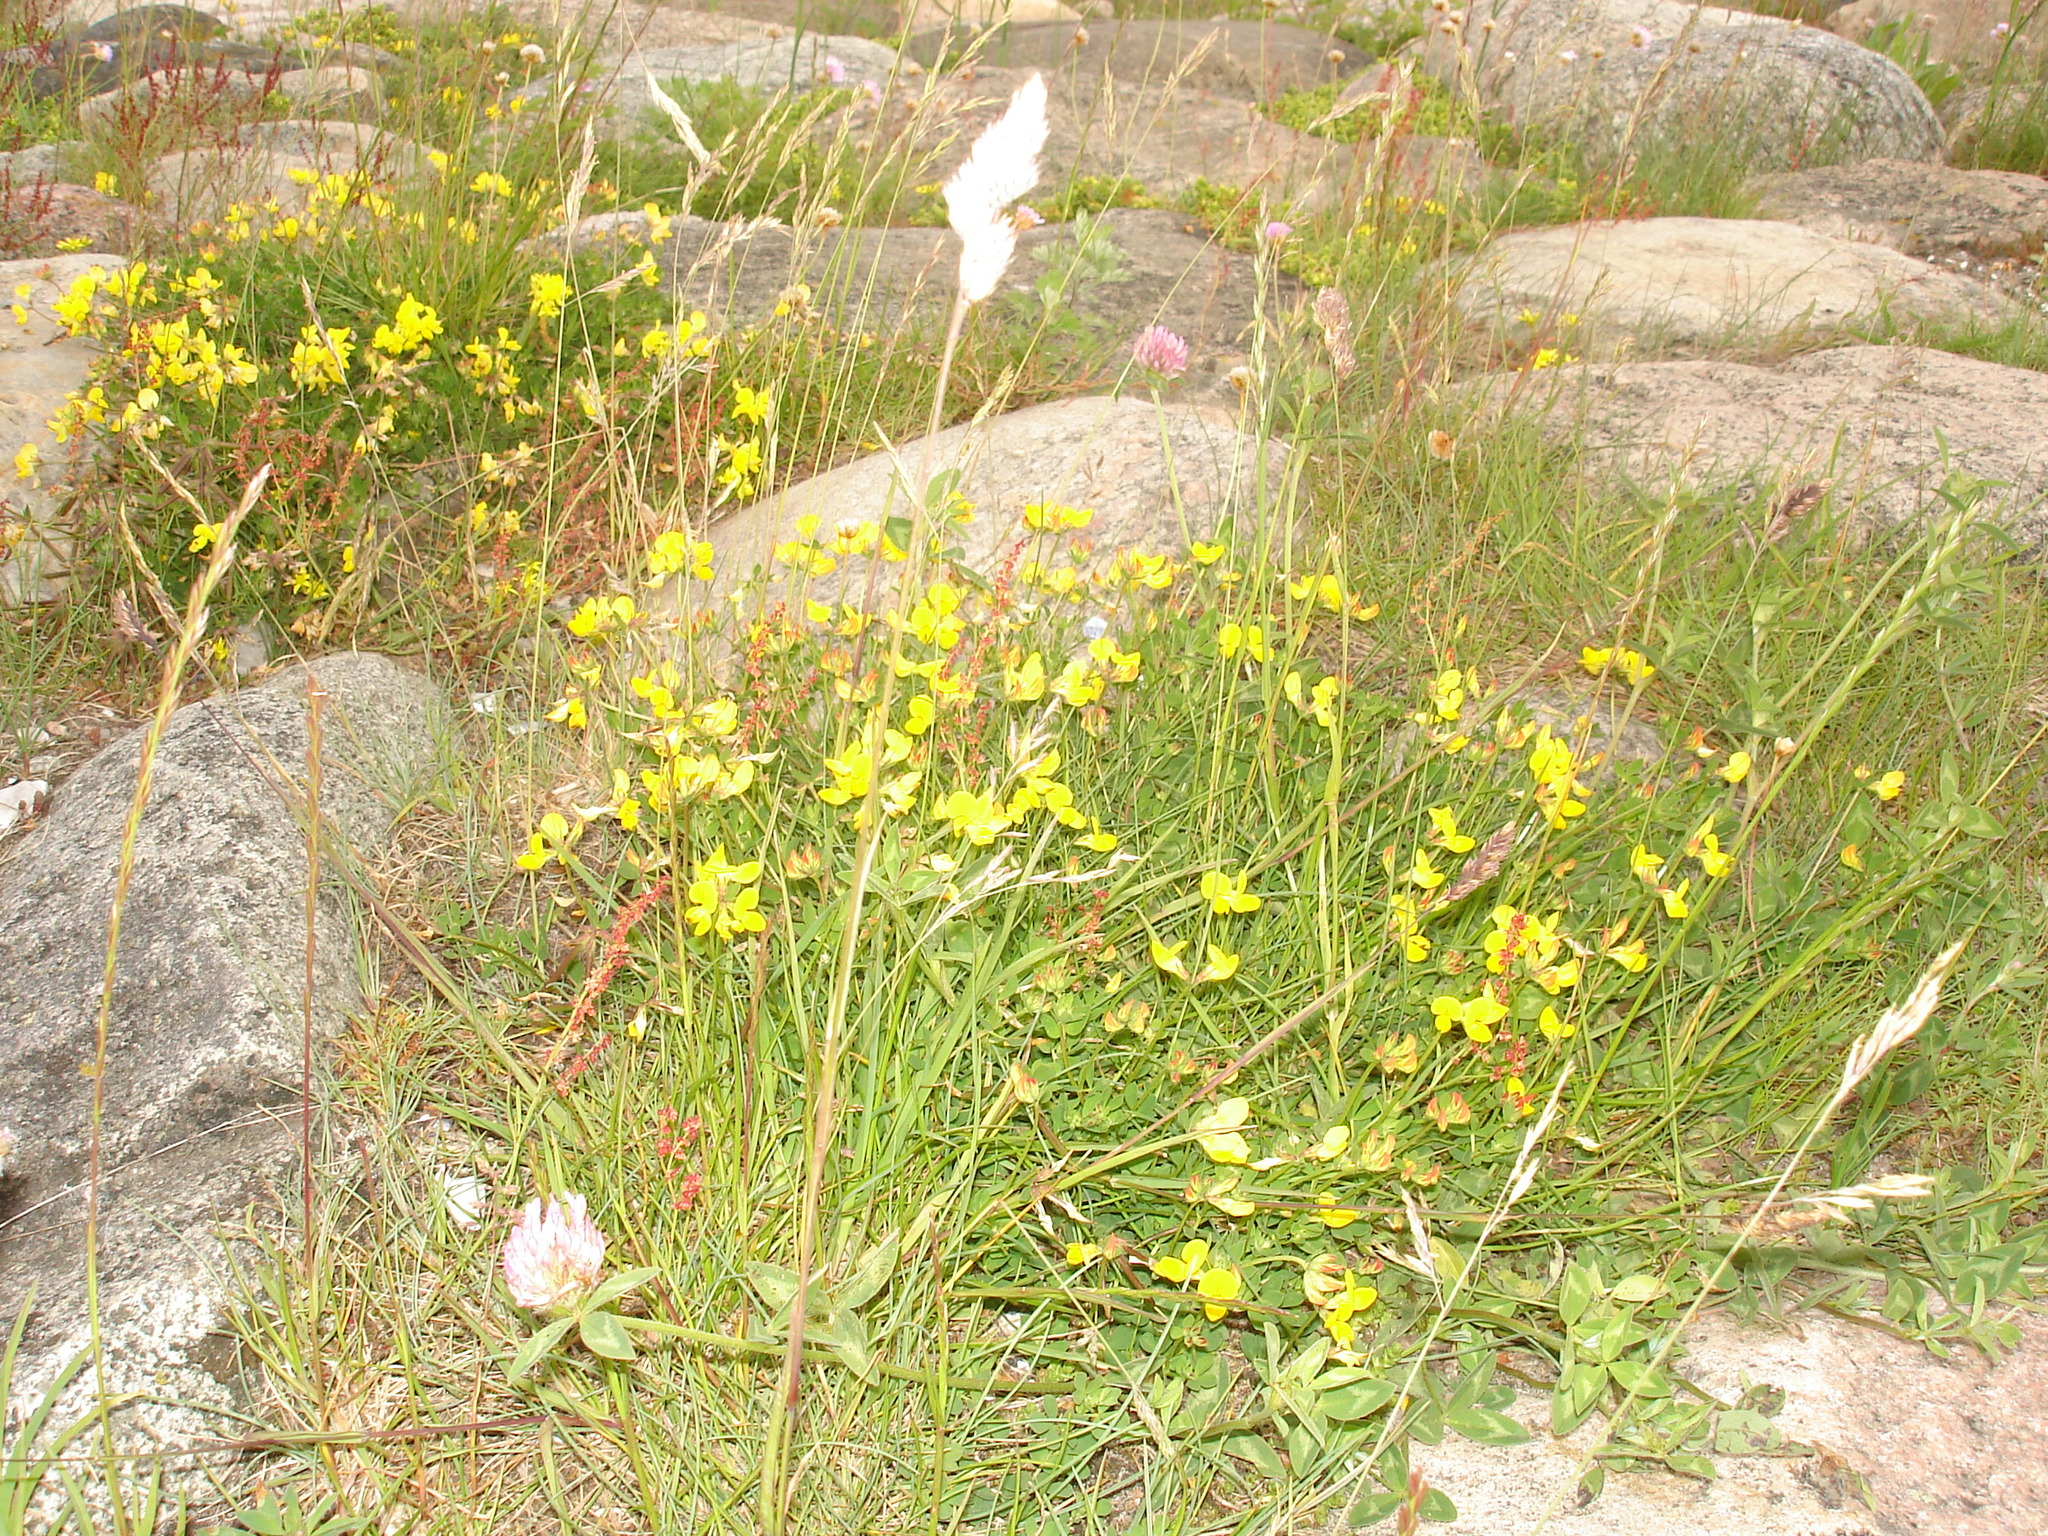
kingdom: Plantae
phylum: Tracheophyta
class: Magnoliopsida
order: Fabales
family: Fabaceae
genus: Trifolium
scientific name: Trifolium pratense
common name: Red clover
